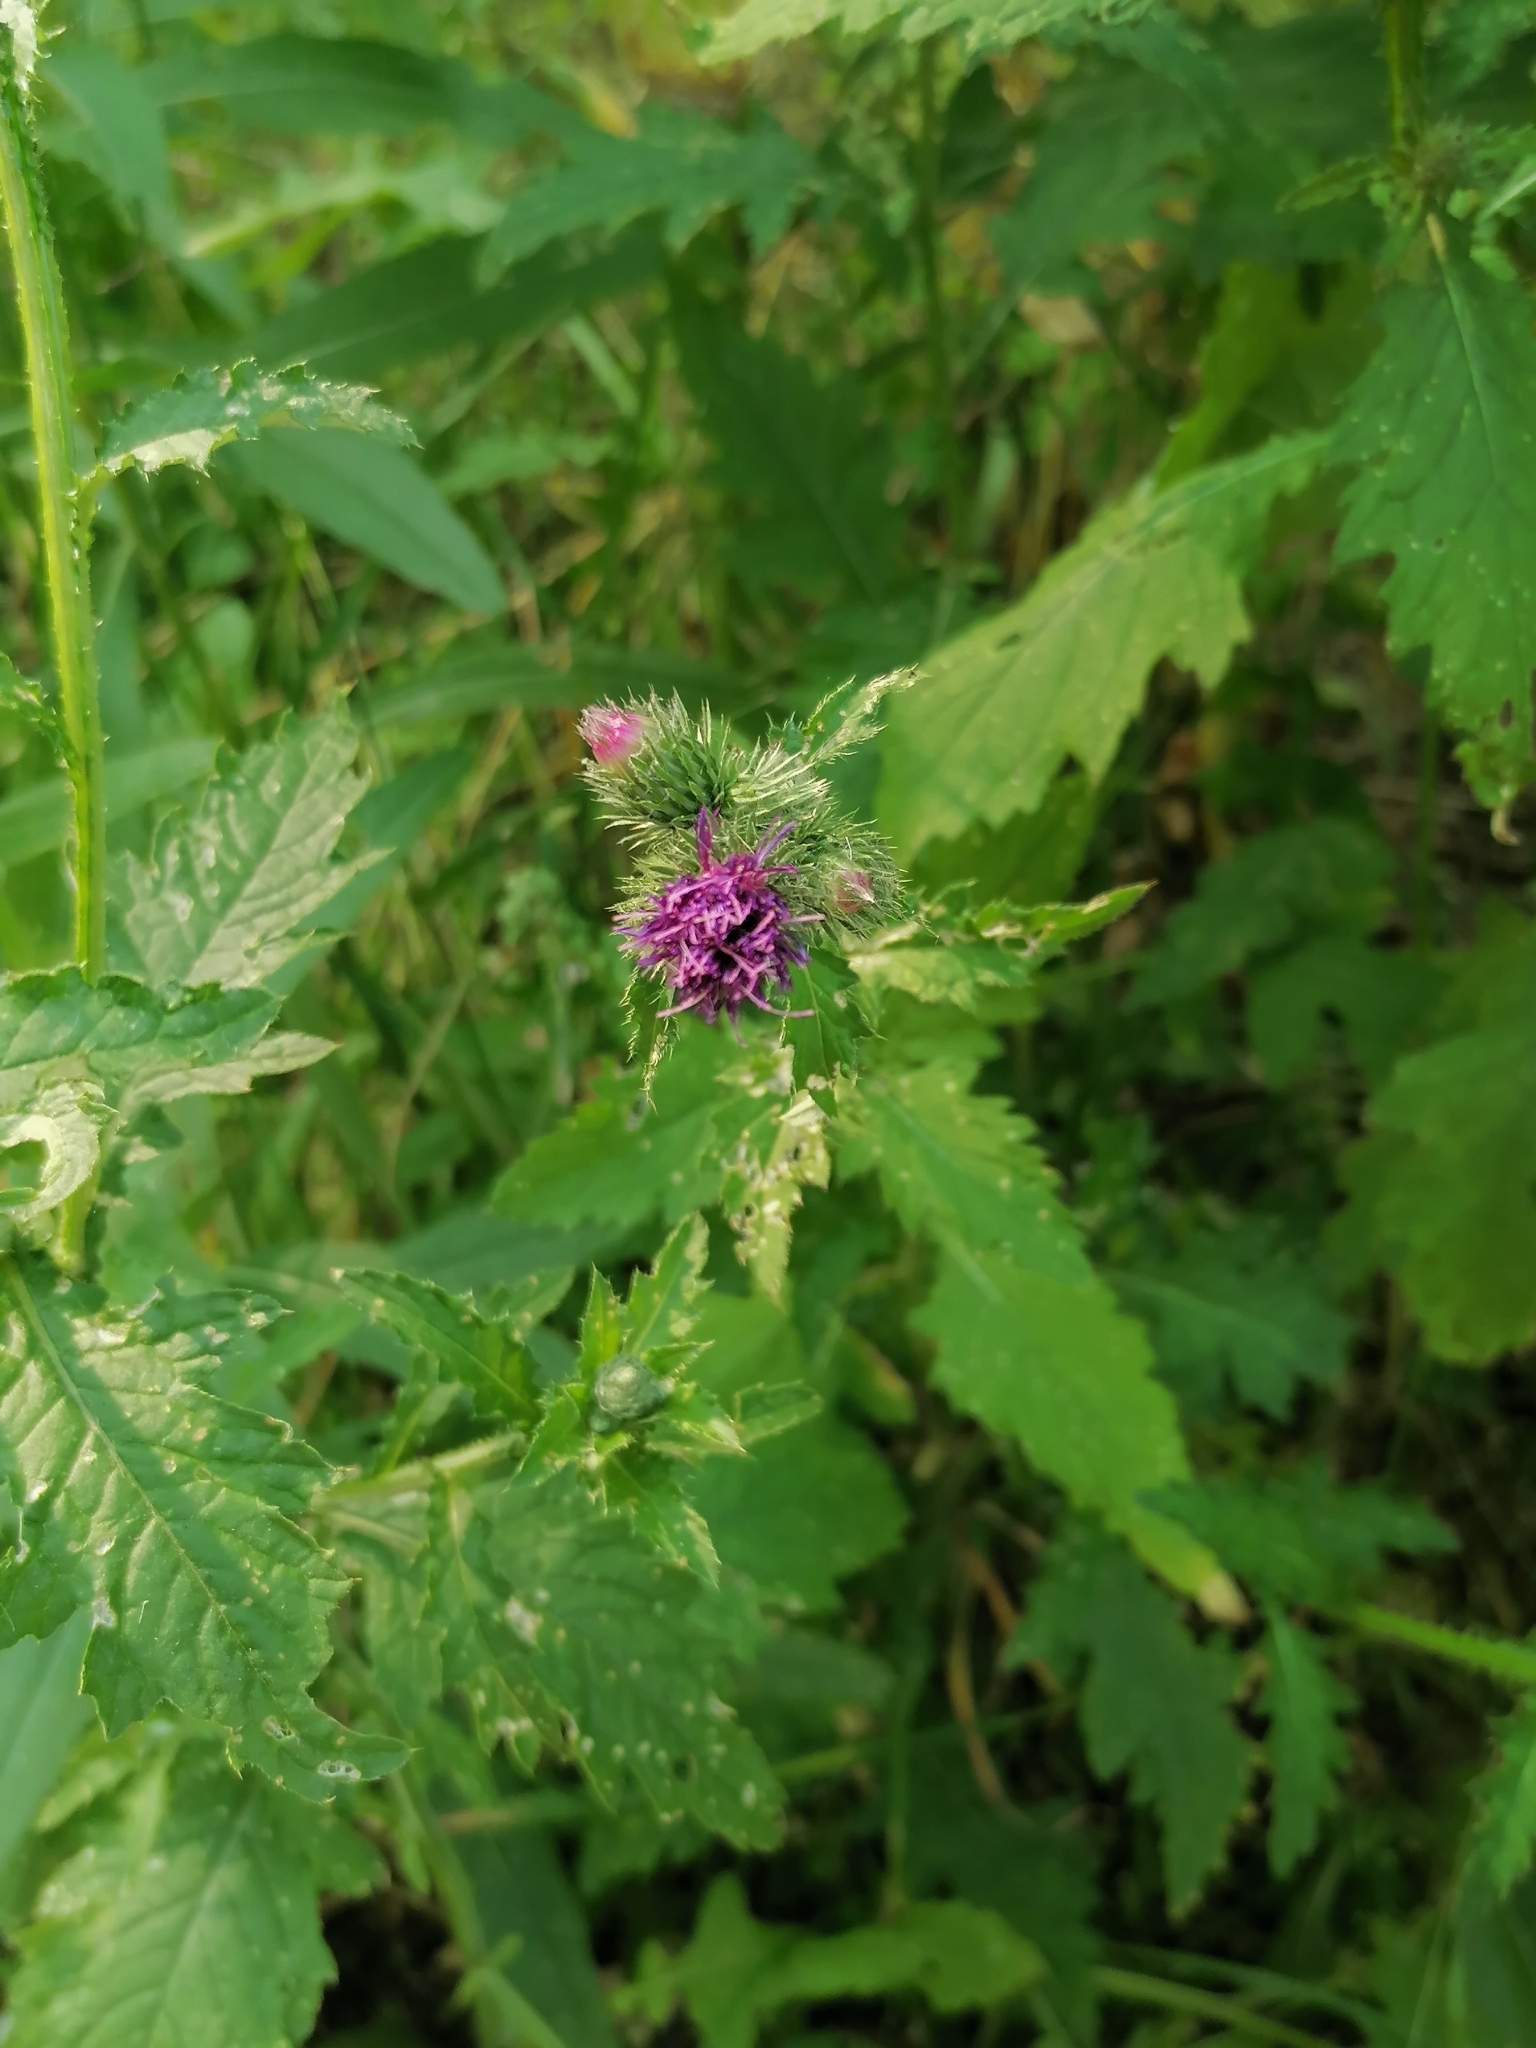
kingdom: Plantae
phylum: Tracheophyta
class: Magnoliopsida
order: Asterales
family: Asteraceae
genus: Carduus
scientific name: Carduus crispus
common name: Welted thistle
